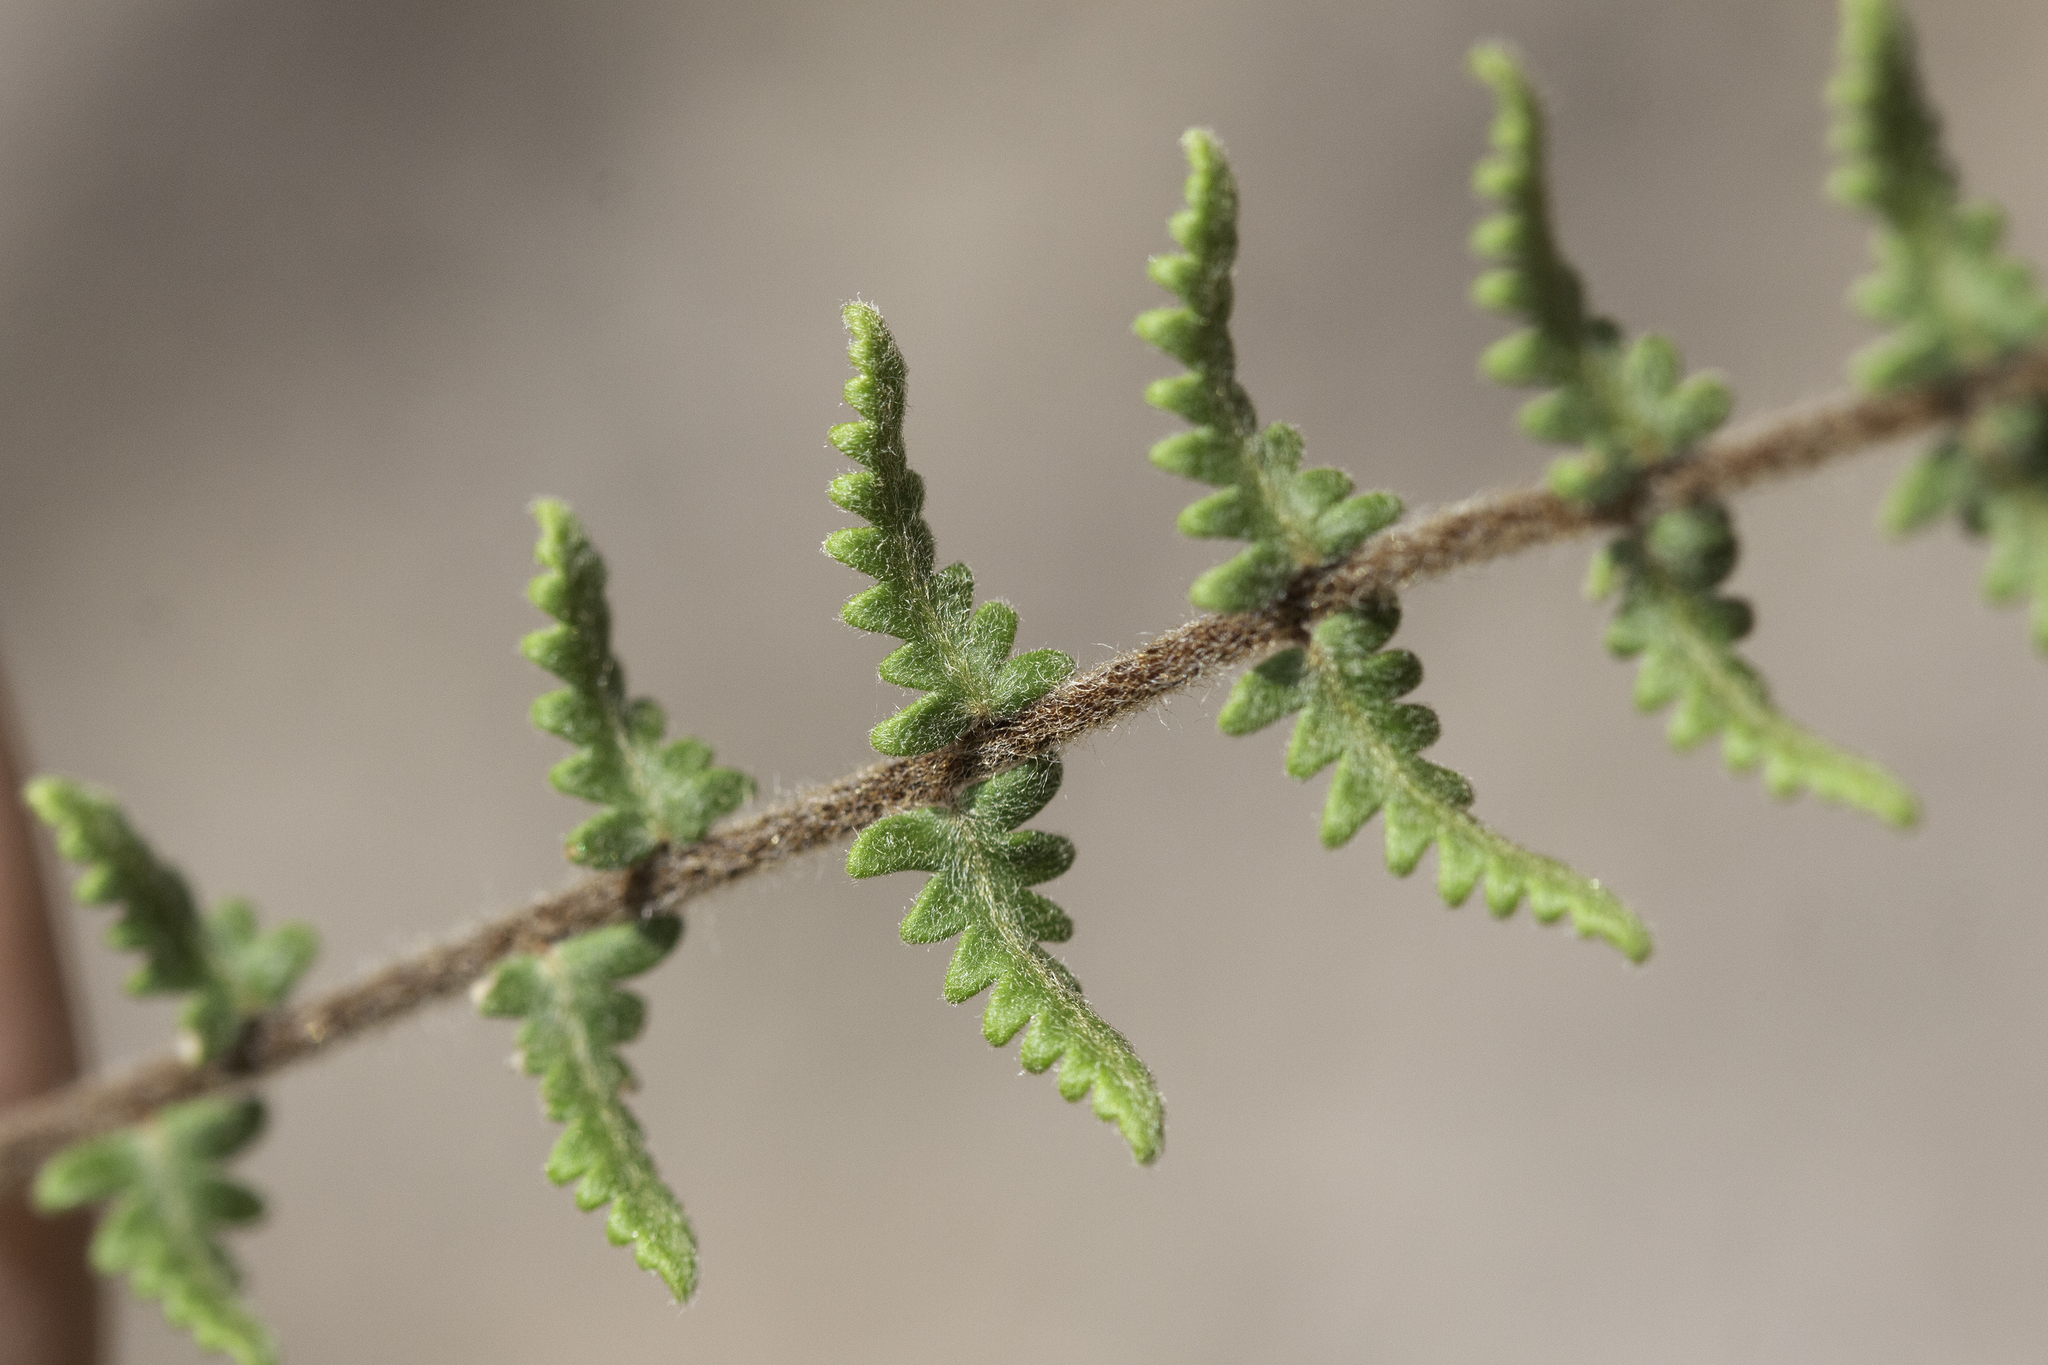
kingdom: Plantae
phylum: Tracheophyta
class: Polypodiopsida
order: Polypodiales
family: Pteridaceae
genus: Myriopteris
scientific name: Myriopteris aurea
